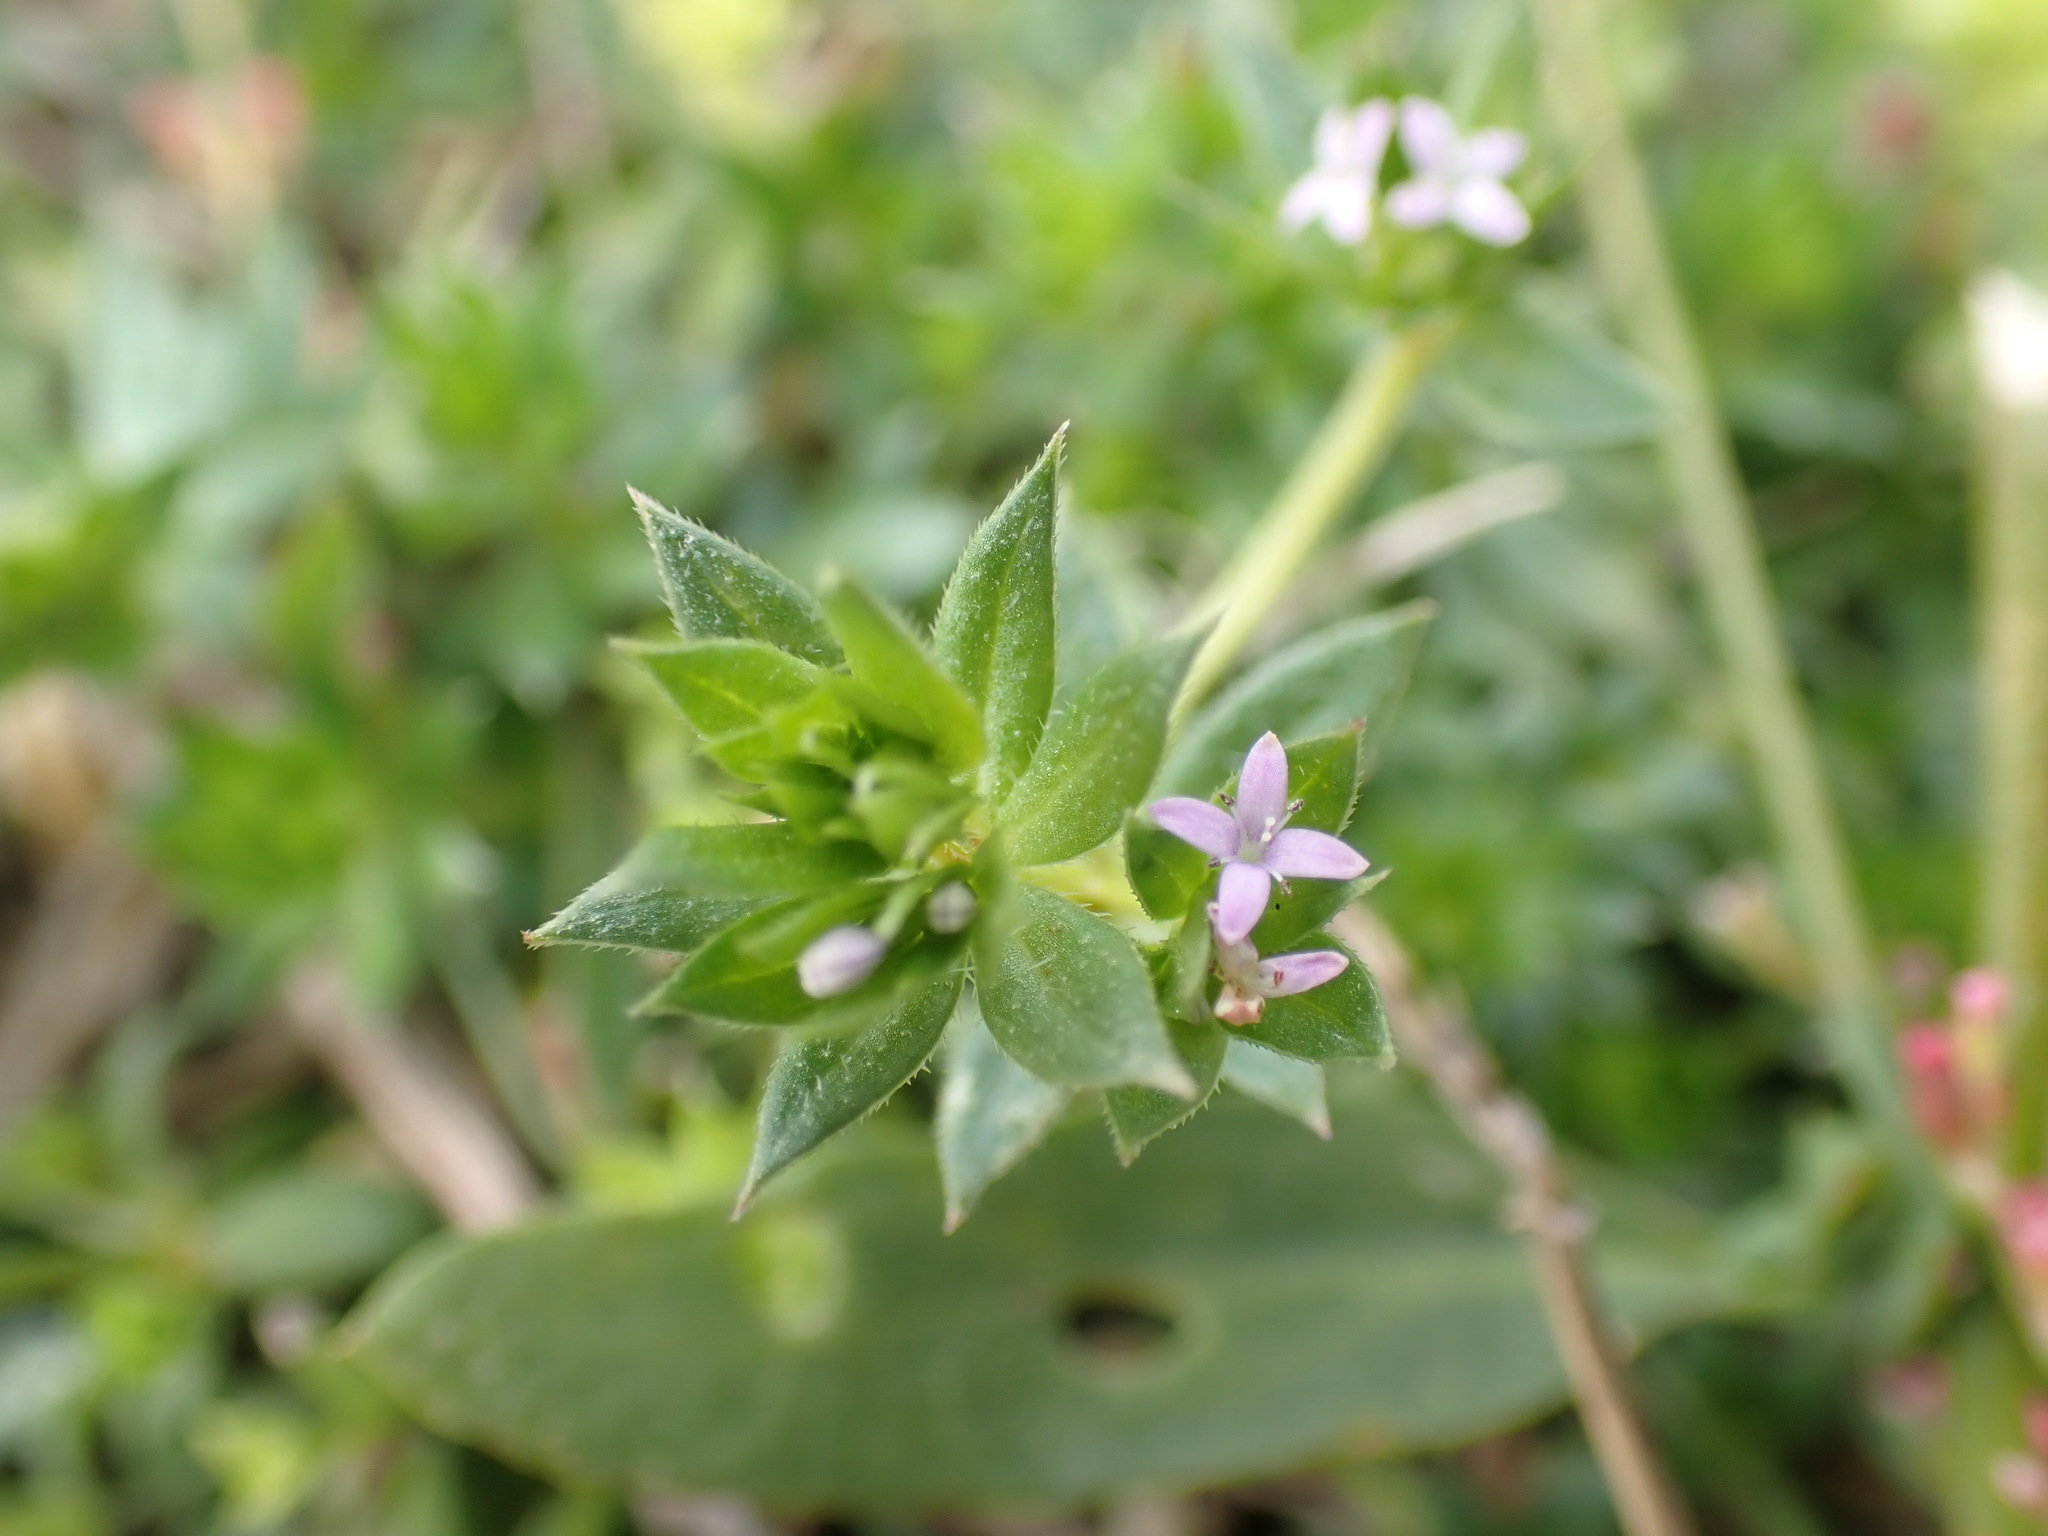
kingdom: Plantae
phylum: Tracheophyta
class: Magnoliopsida
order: Gentianales
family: Rubiaceae
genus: Sherardia
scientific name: Sherardia arvensis
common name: Field madder
